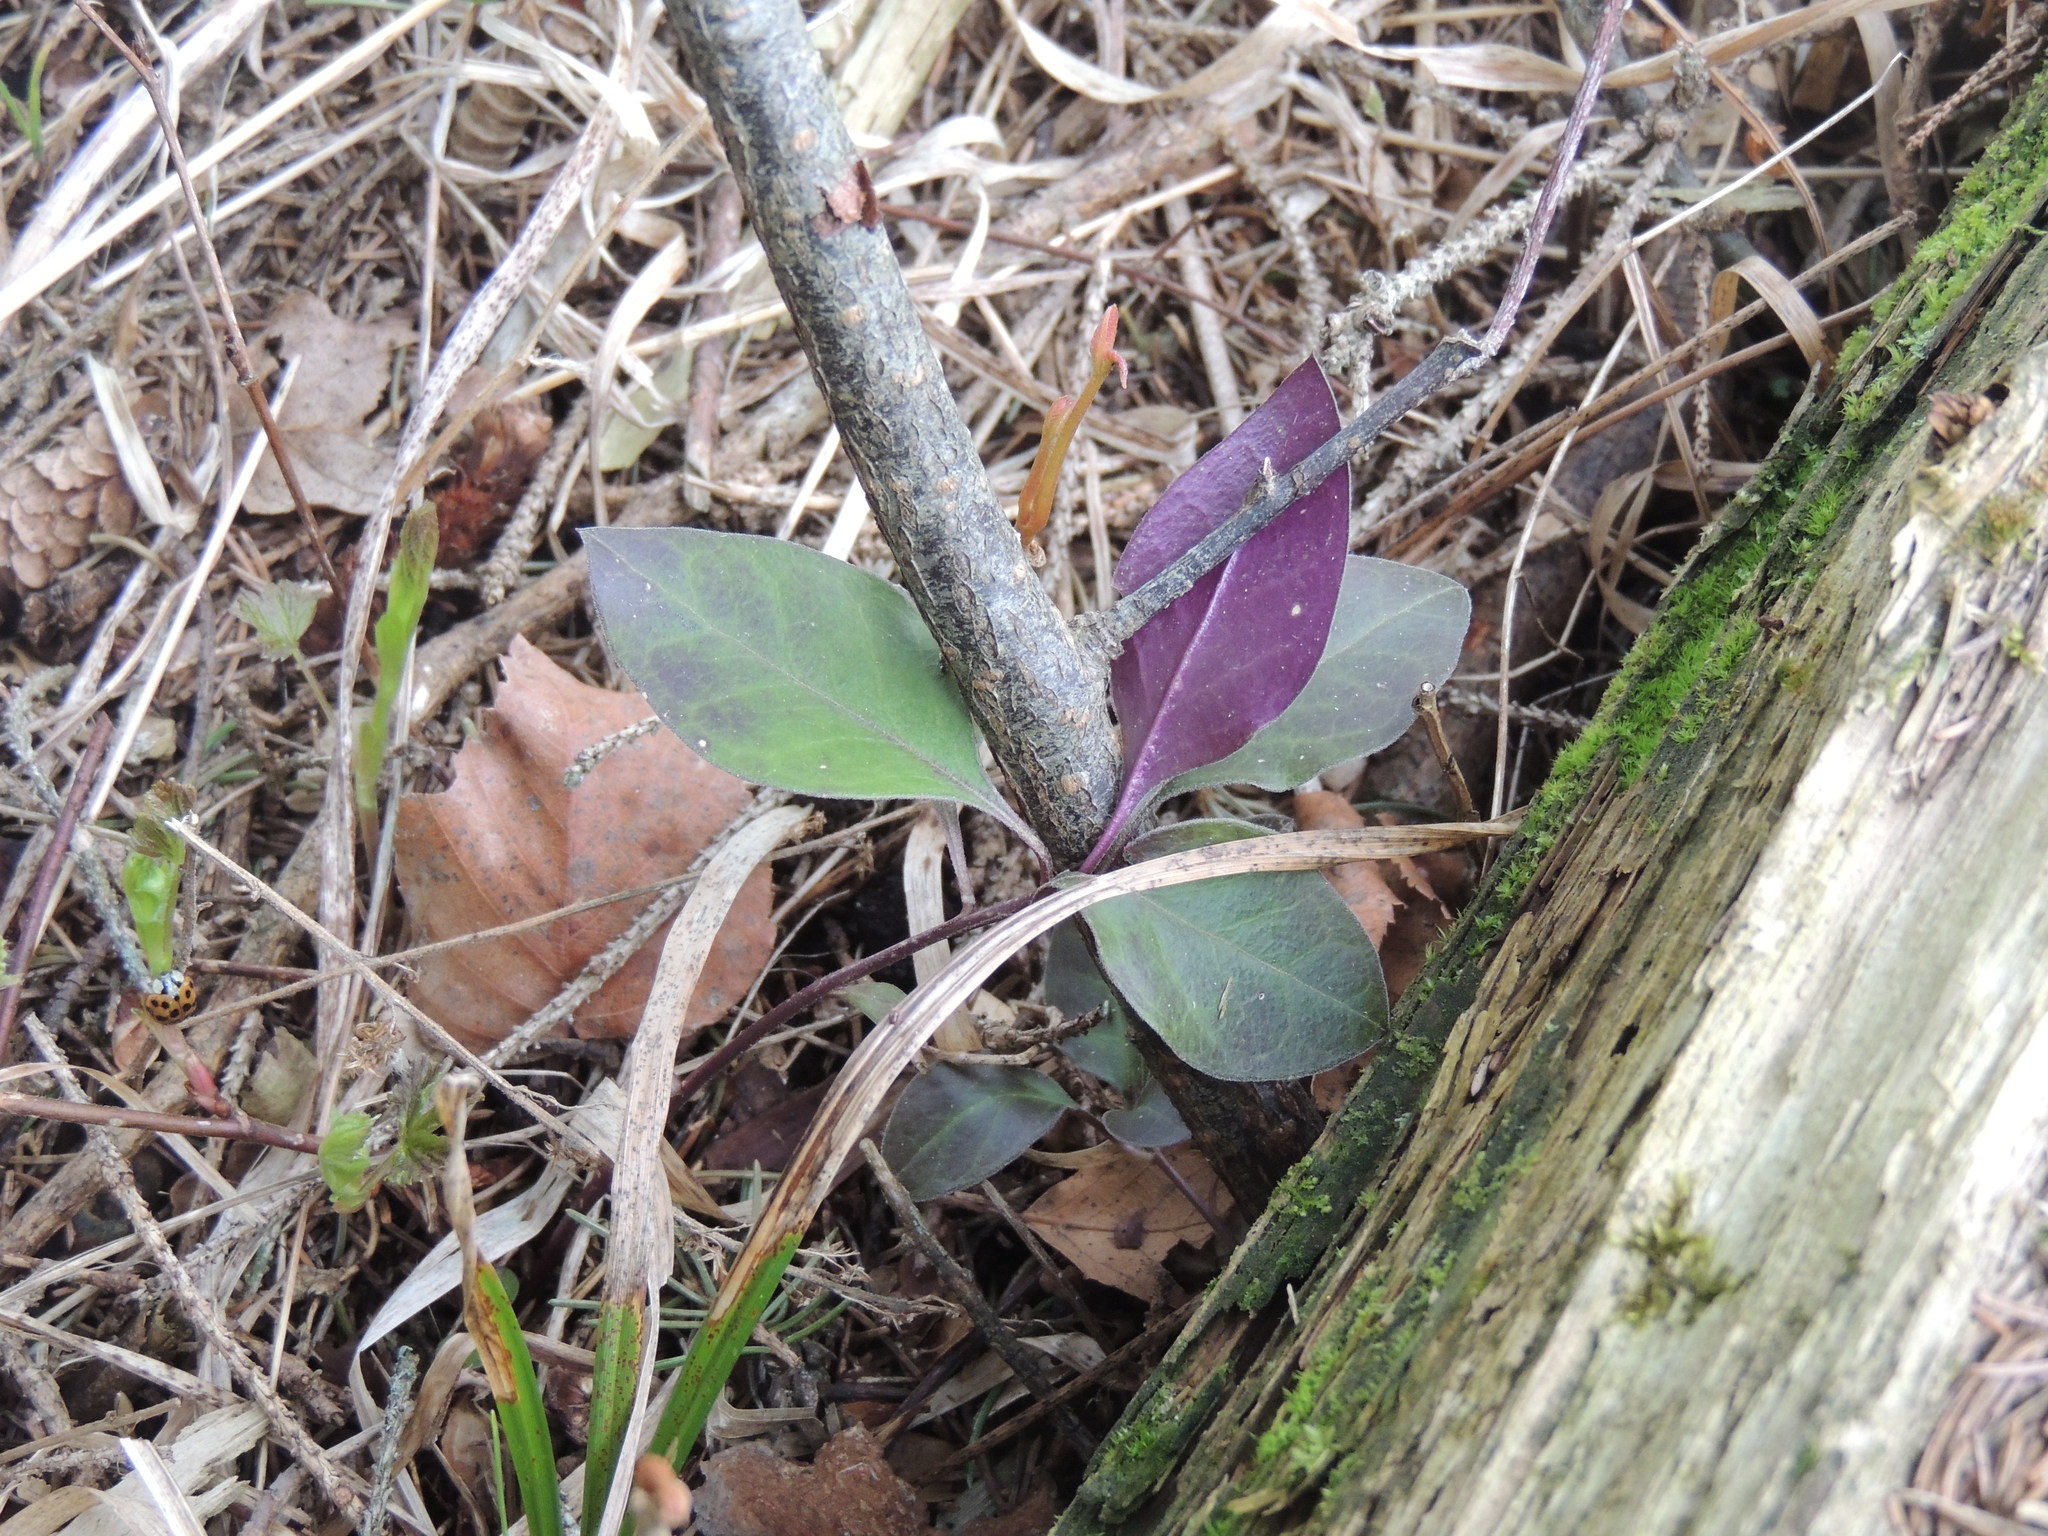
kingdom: Plantae
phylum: Tracheophyta
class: Magnoliopsida
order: Fabales
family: Polygalaceae
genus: Polygaloides
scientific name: Polygaloides paucifolia
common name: Bird-on-the-wing
